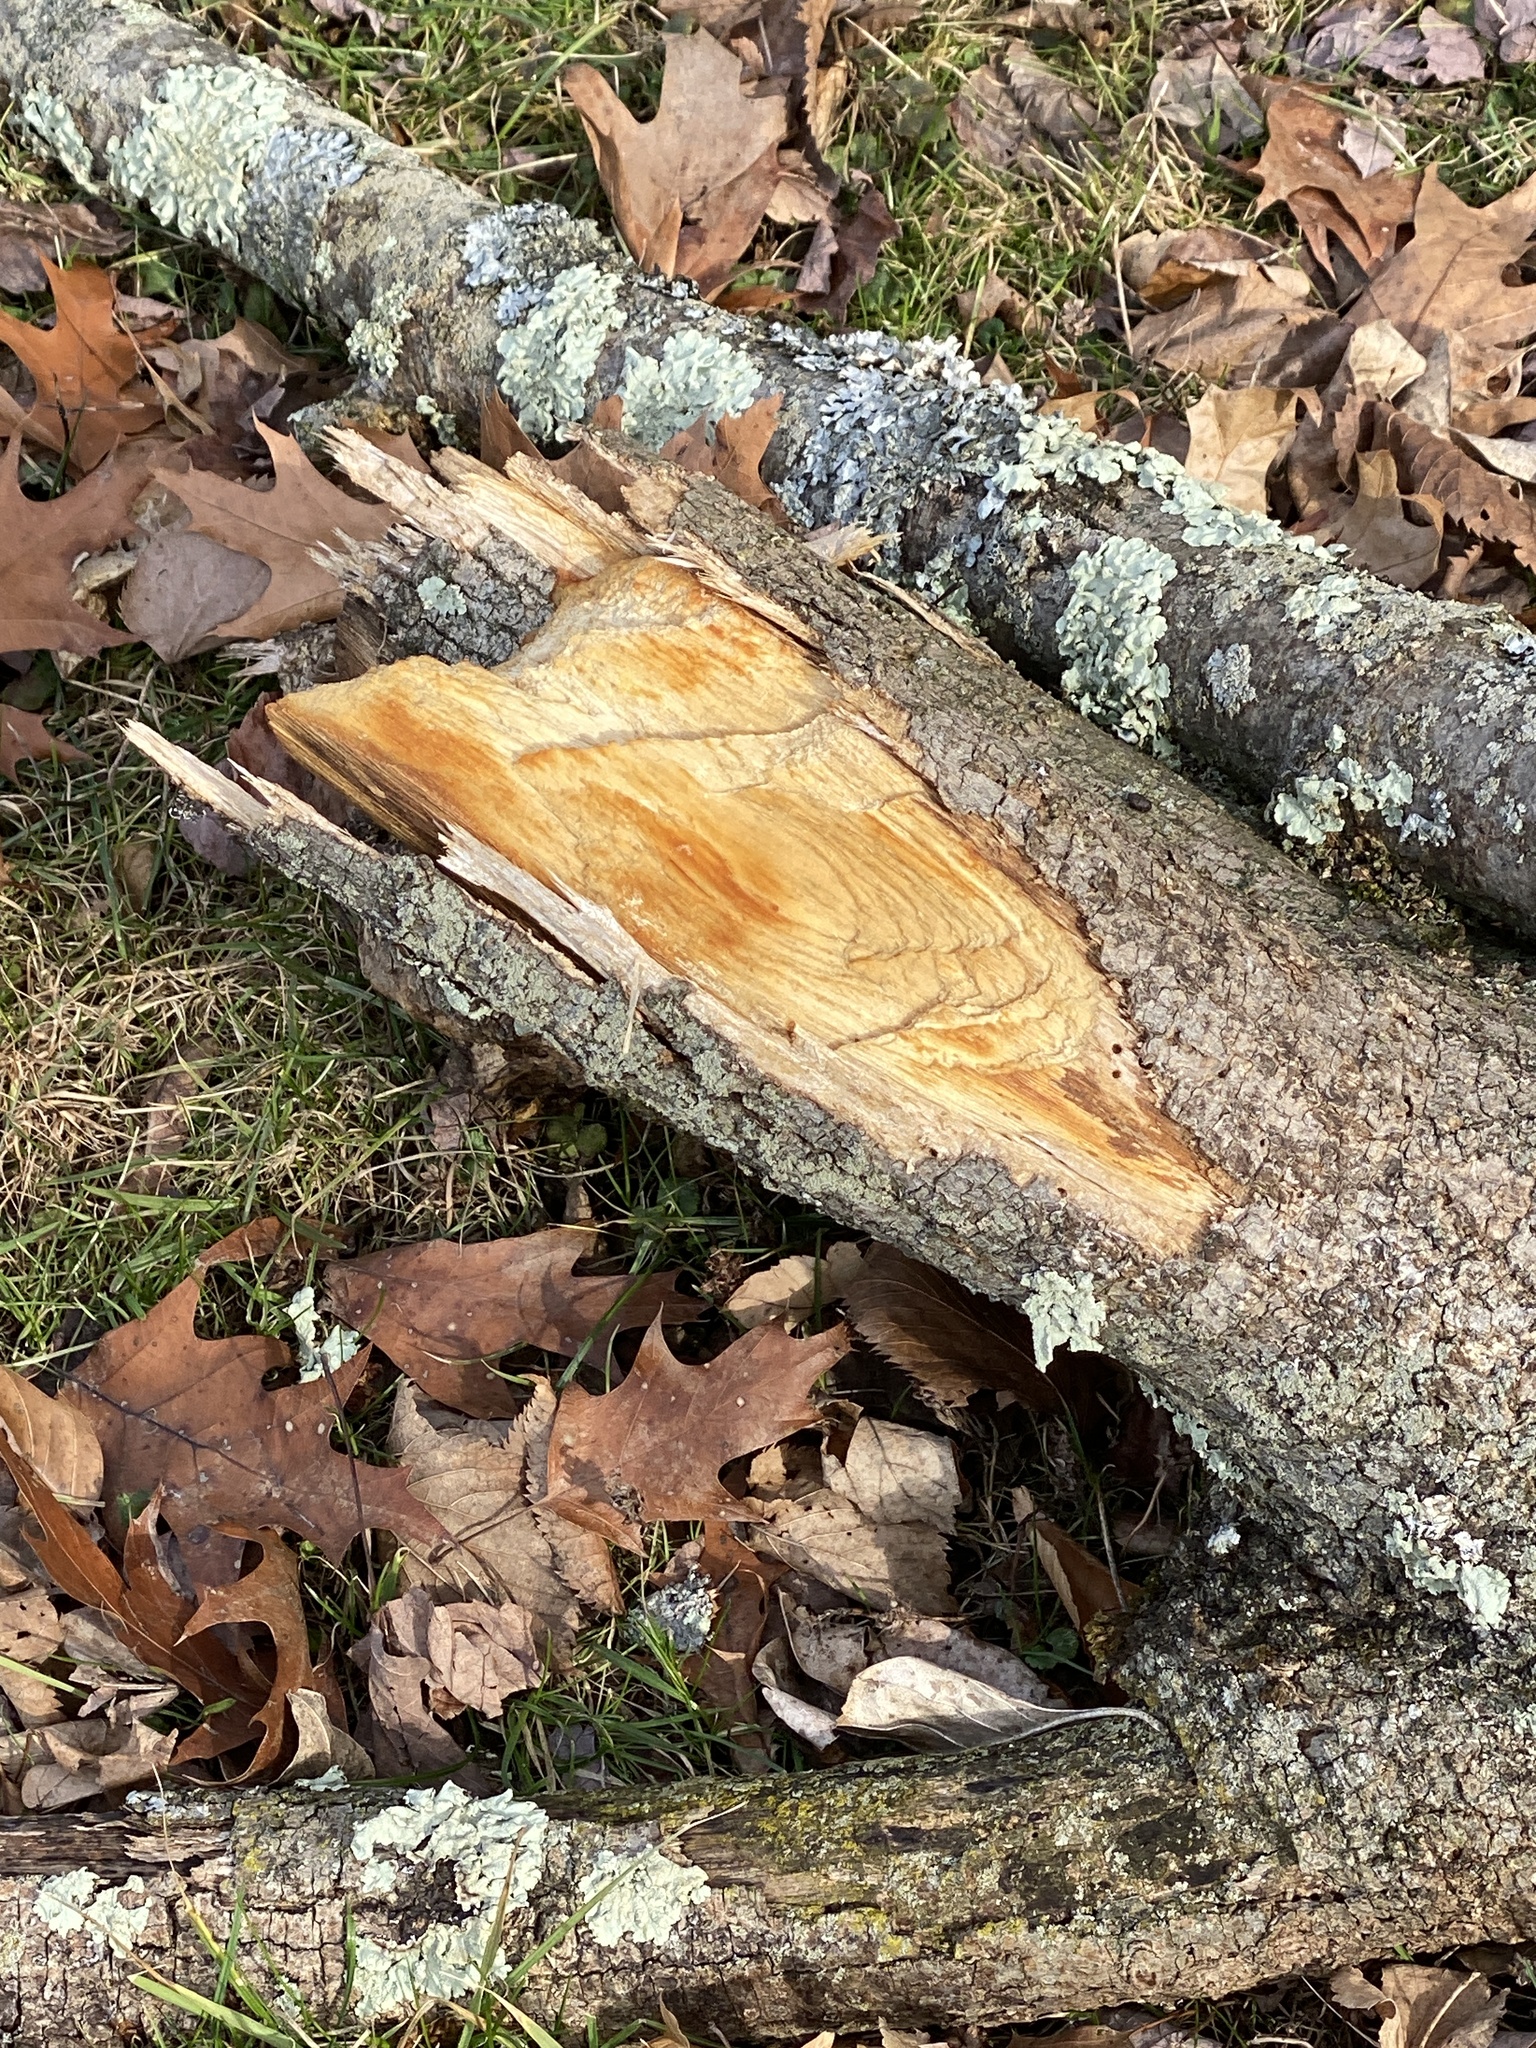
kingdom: Animalia
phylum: Arthropoda
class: Insecta
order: Coleoptera
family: Buprestidae
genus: Agrilus
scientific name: Agrilus planipennis
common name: Emerald ash borer
